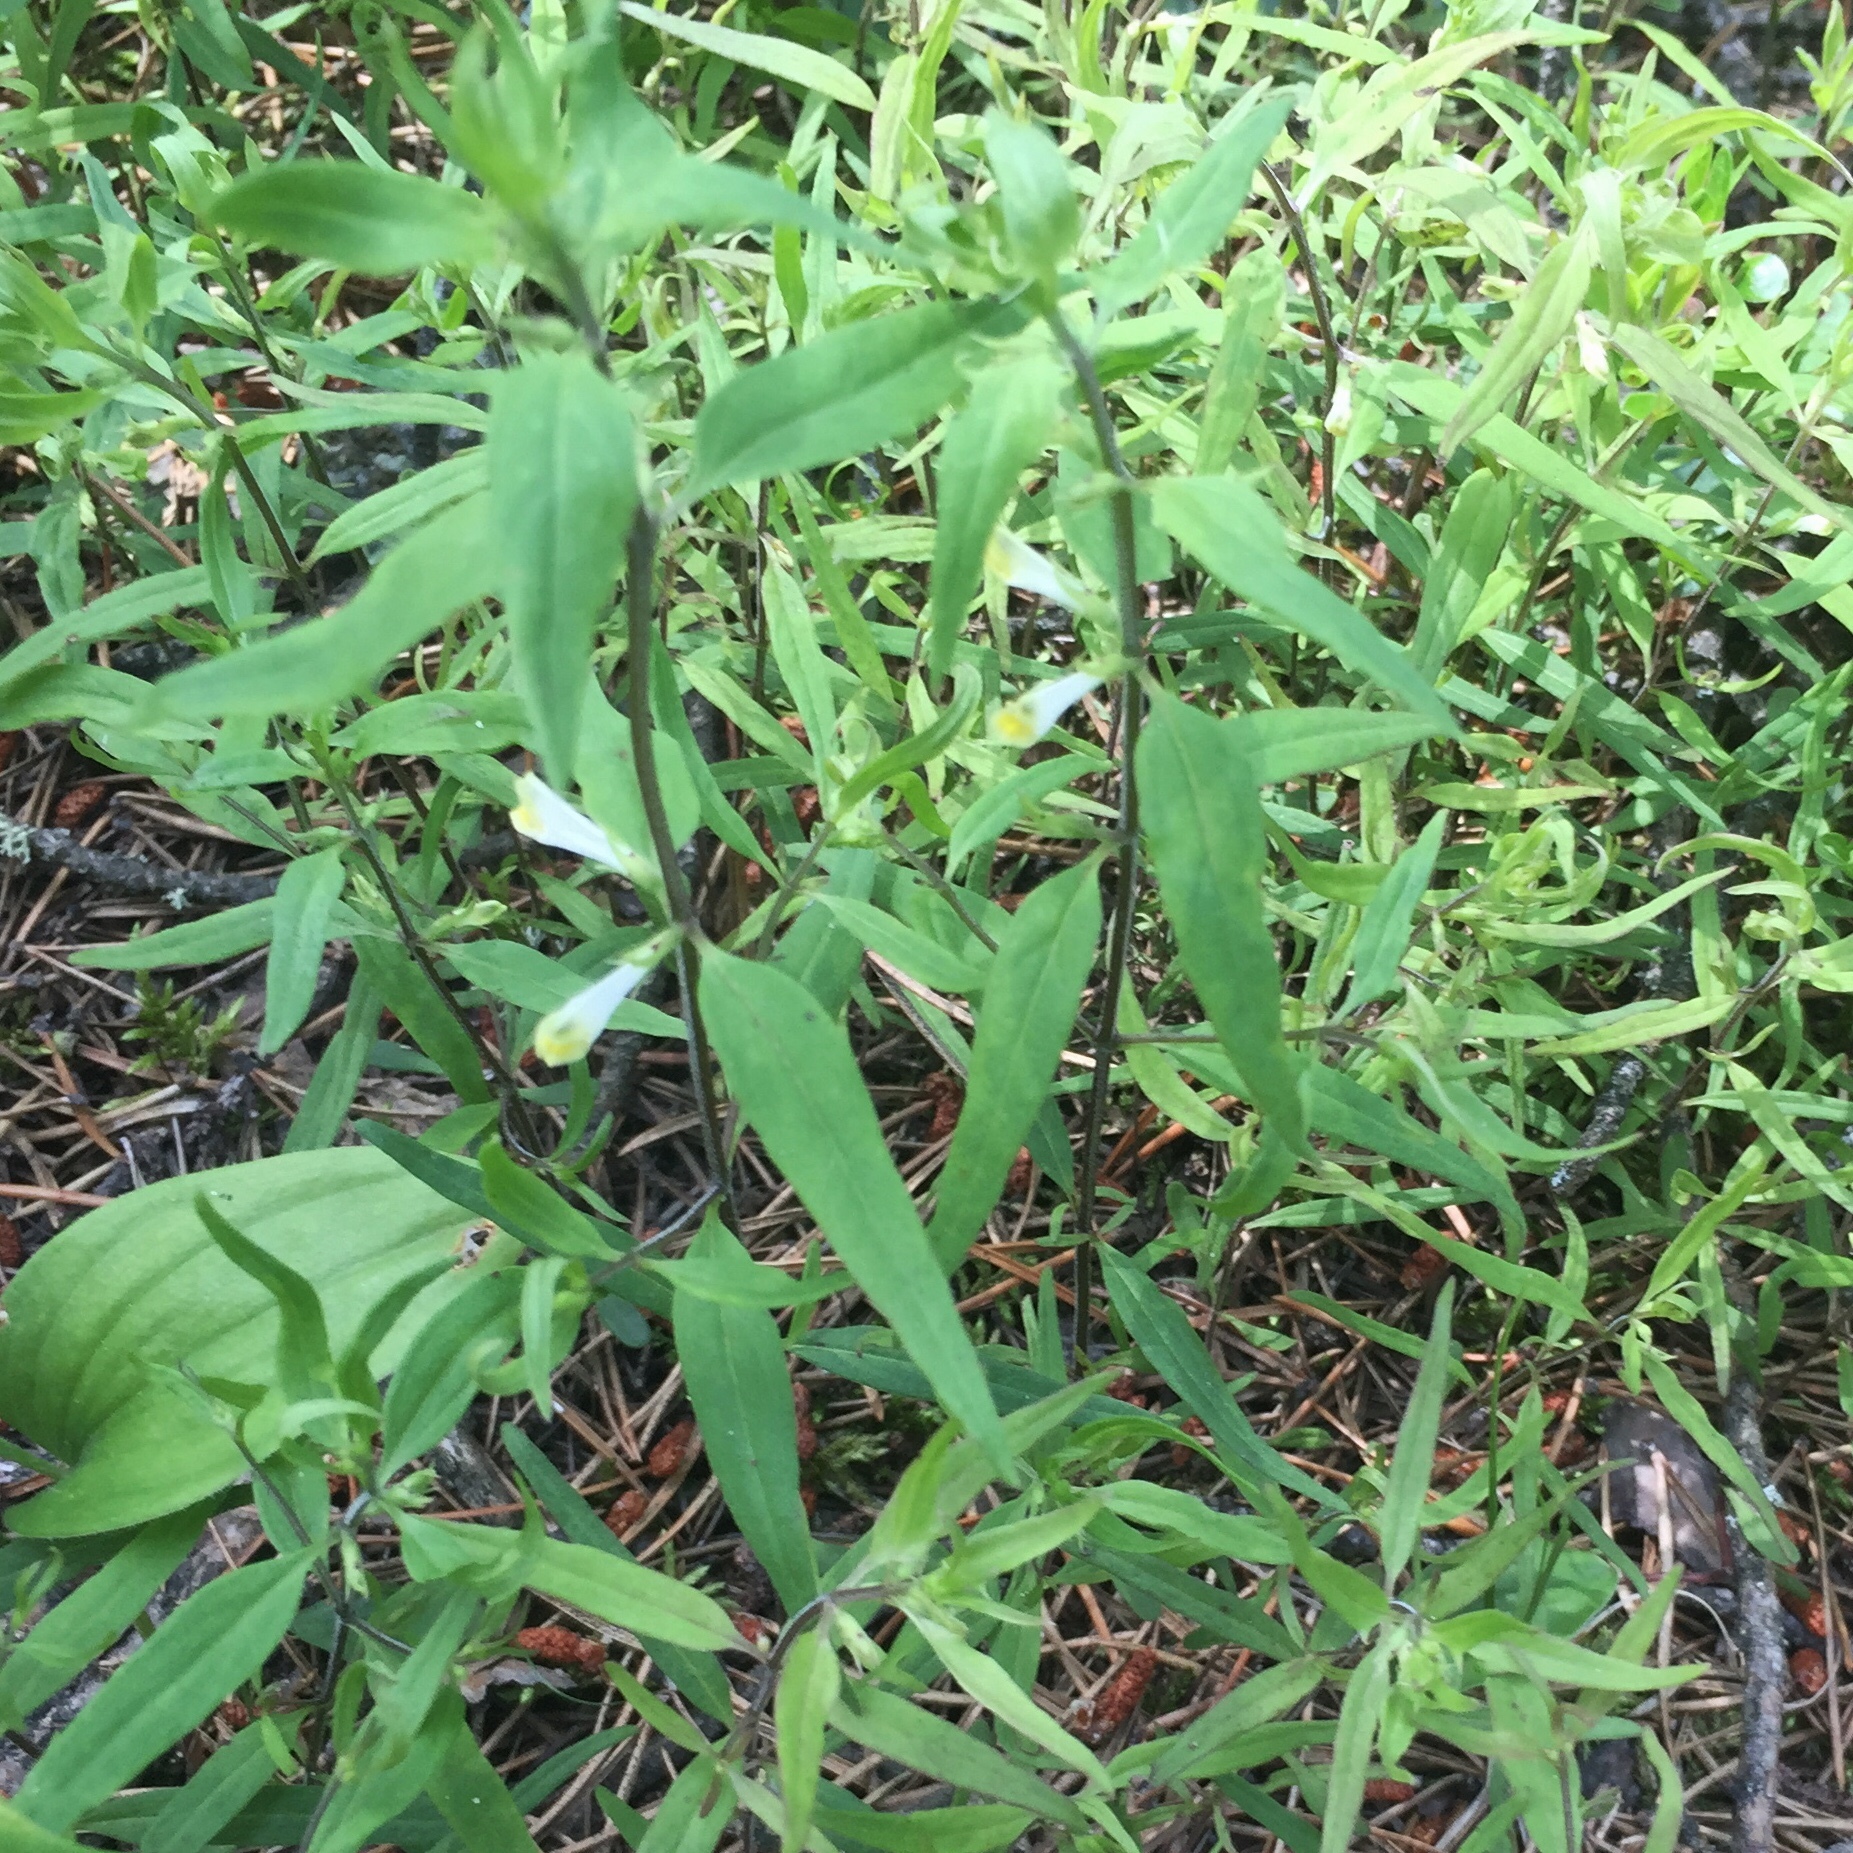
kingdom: Plantae
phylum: Tracheophyta
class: Magnoliopsida
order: Lamiales
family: Orobanchaceae
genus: Melampyrum
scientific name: Melampyrum lineare
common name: American cow-wheat
